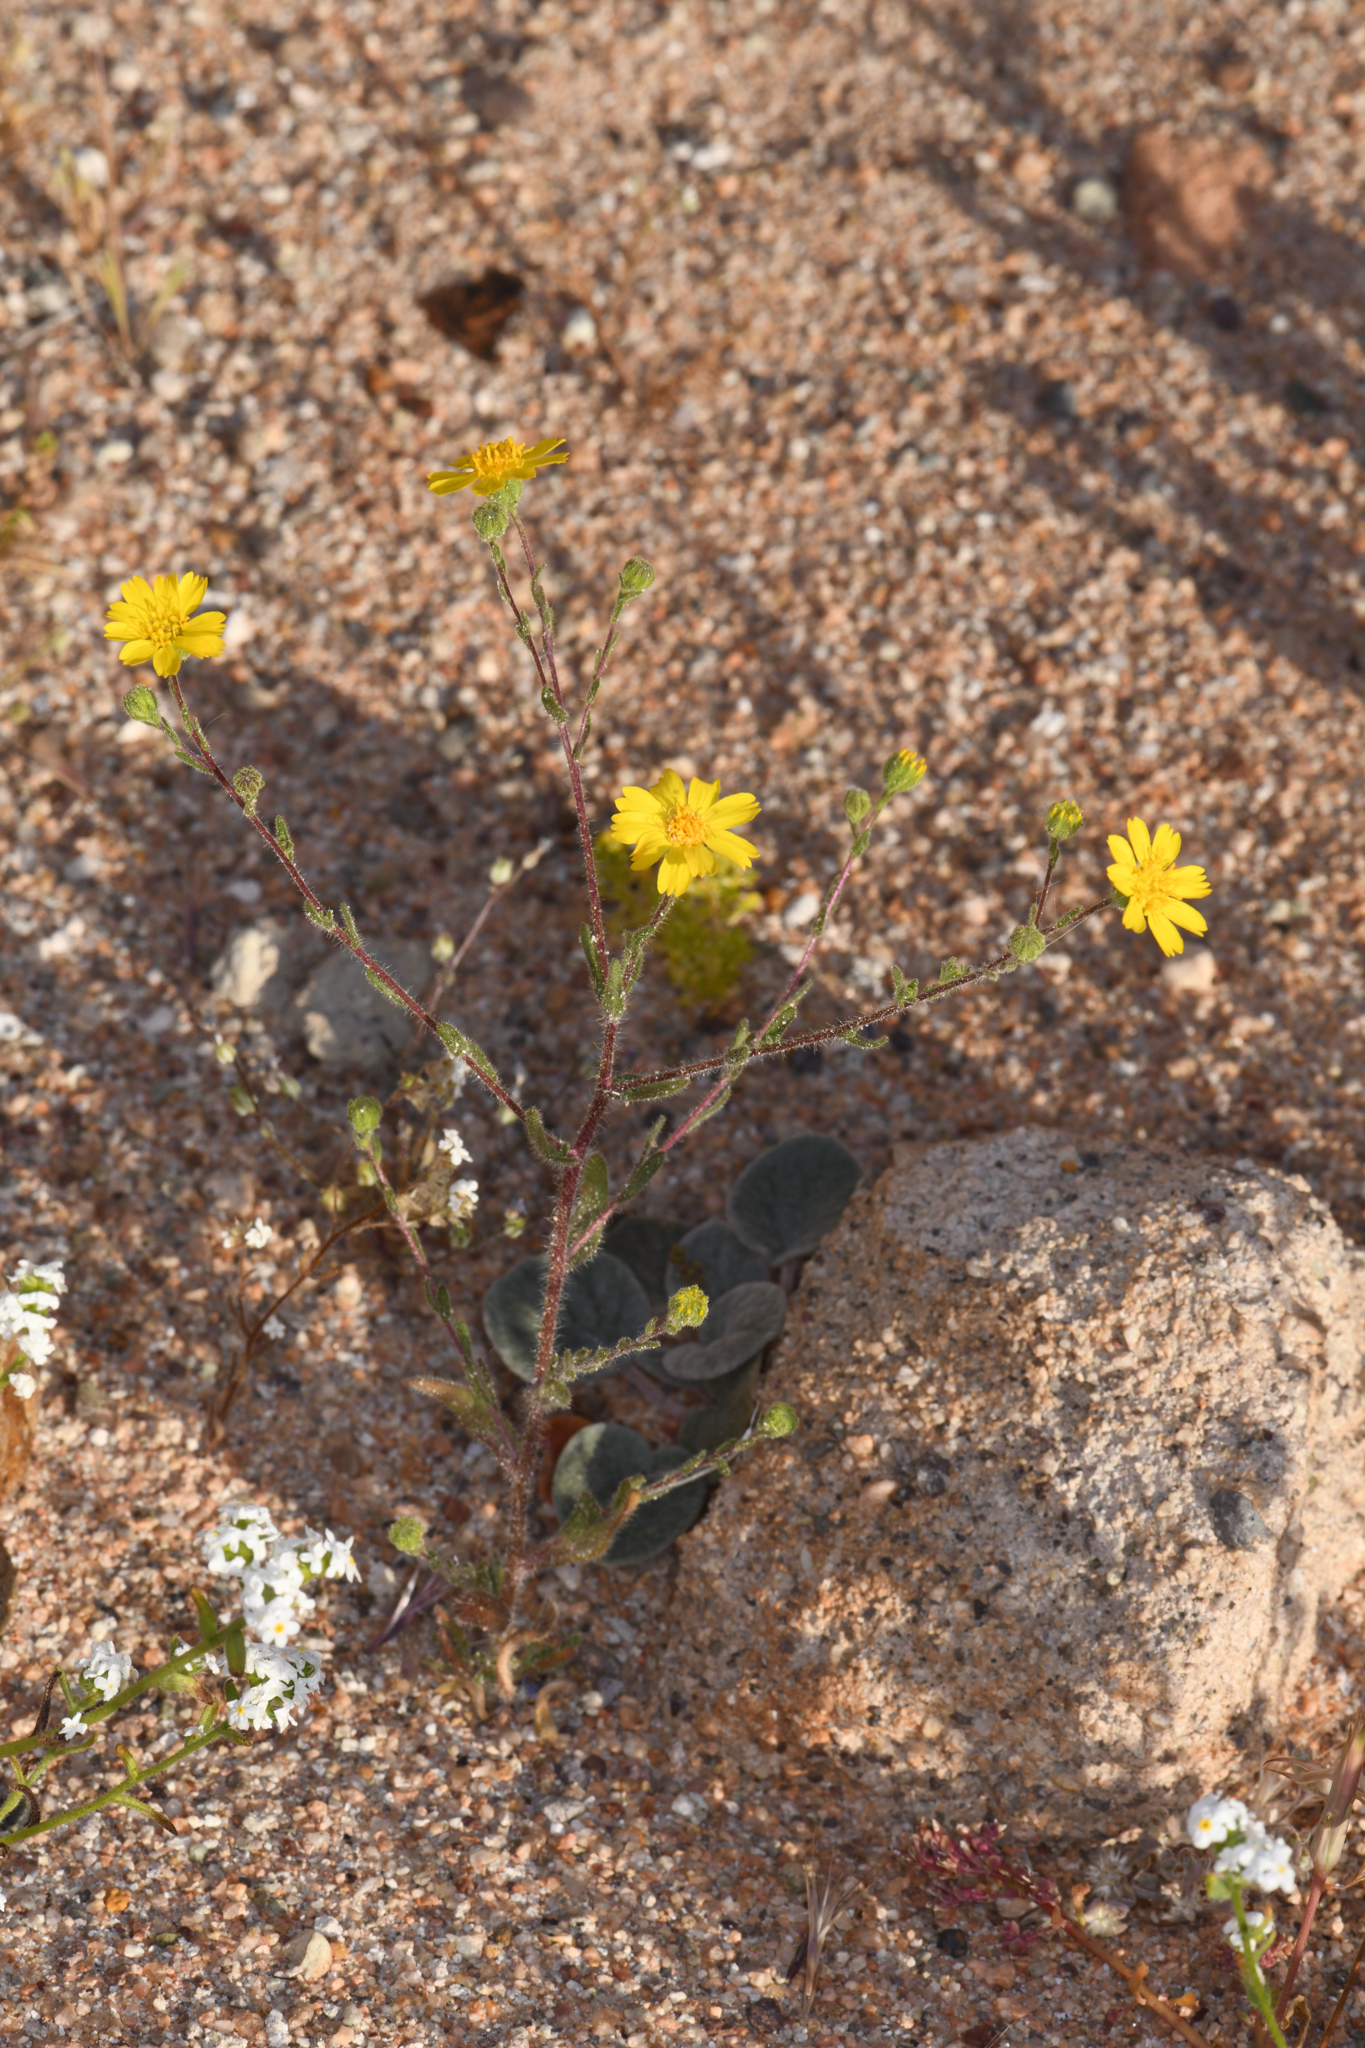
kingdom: Plantae
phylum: Tracheophyta
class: Magnoliopsida
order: Asterales
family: Asteraceae
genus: Deinandra
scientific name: Deinandra arida
